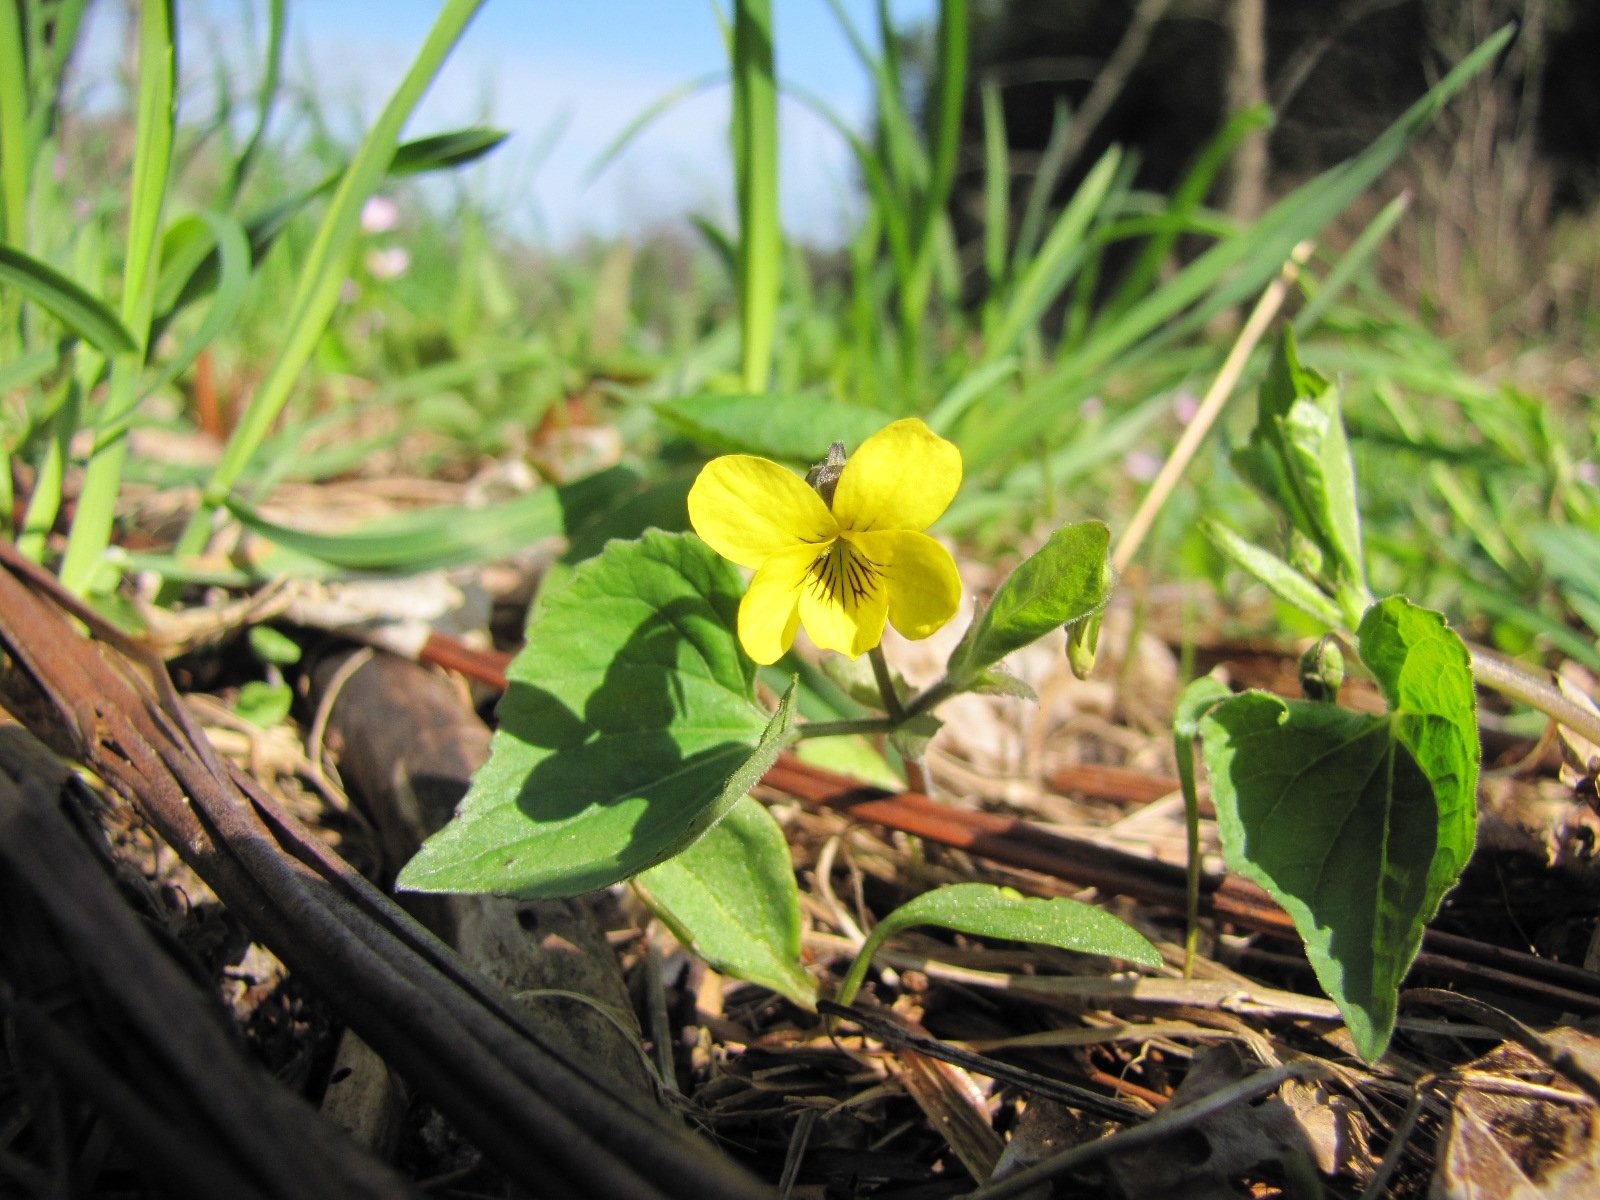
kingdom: Plantae
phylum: Tracheophyta
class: Magnoliopsida
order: Malpighiales
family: Violaceae
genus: Viola
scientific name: Viola eriocarpa
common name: Smooth yellow violet
